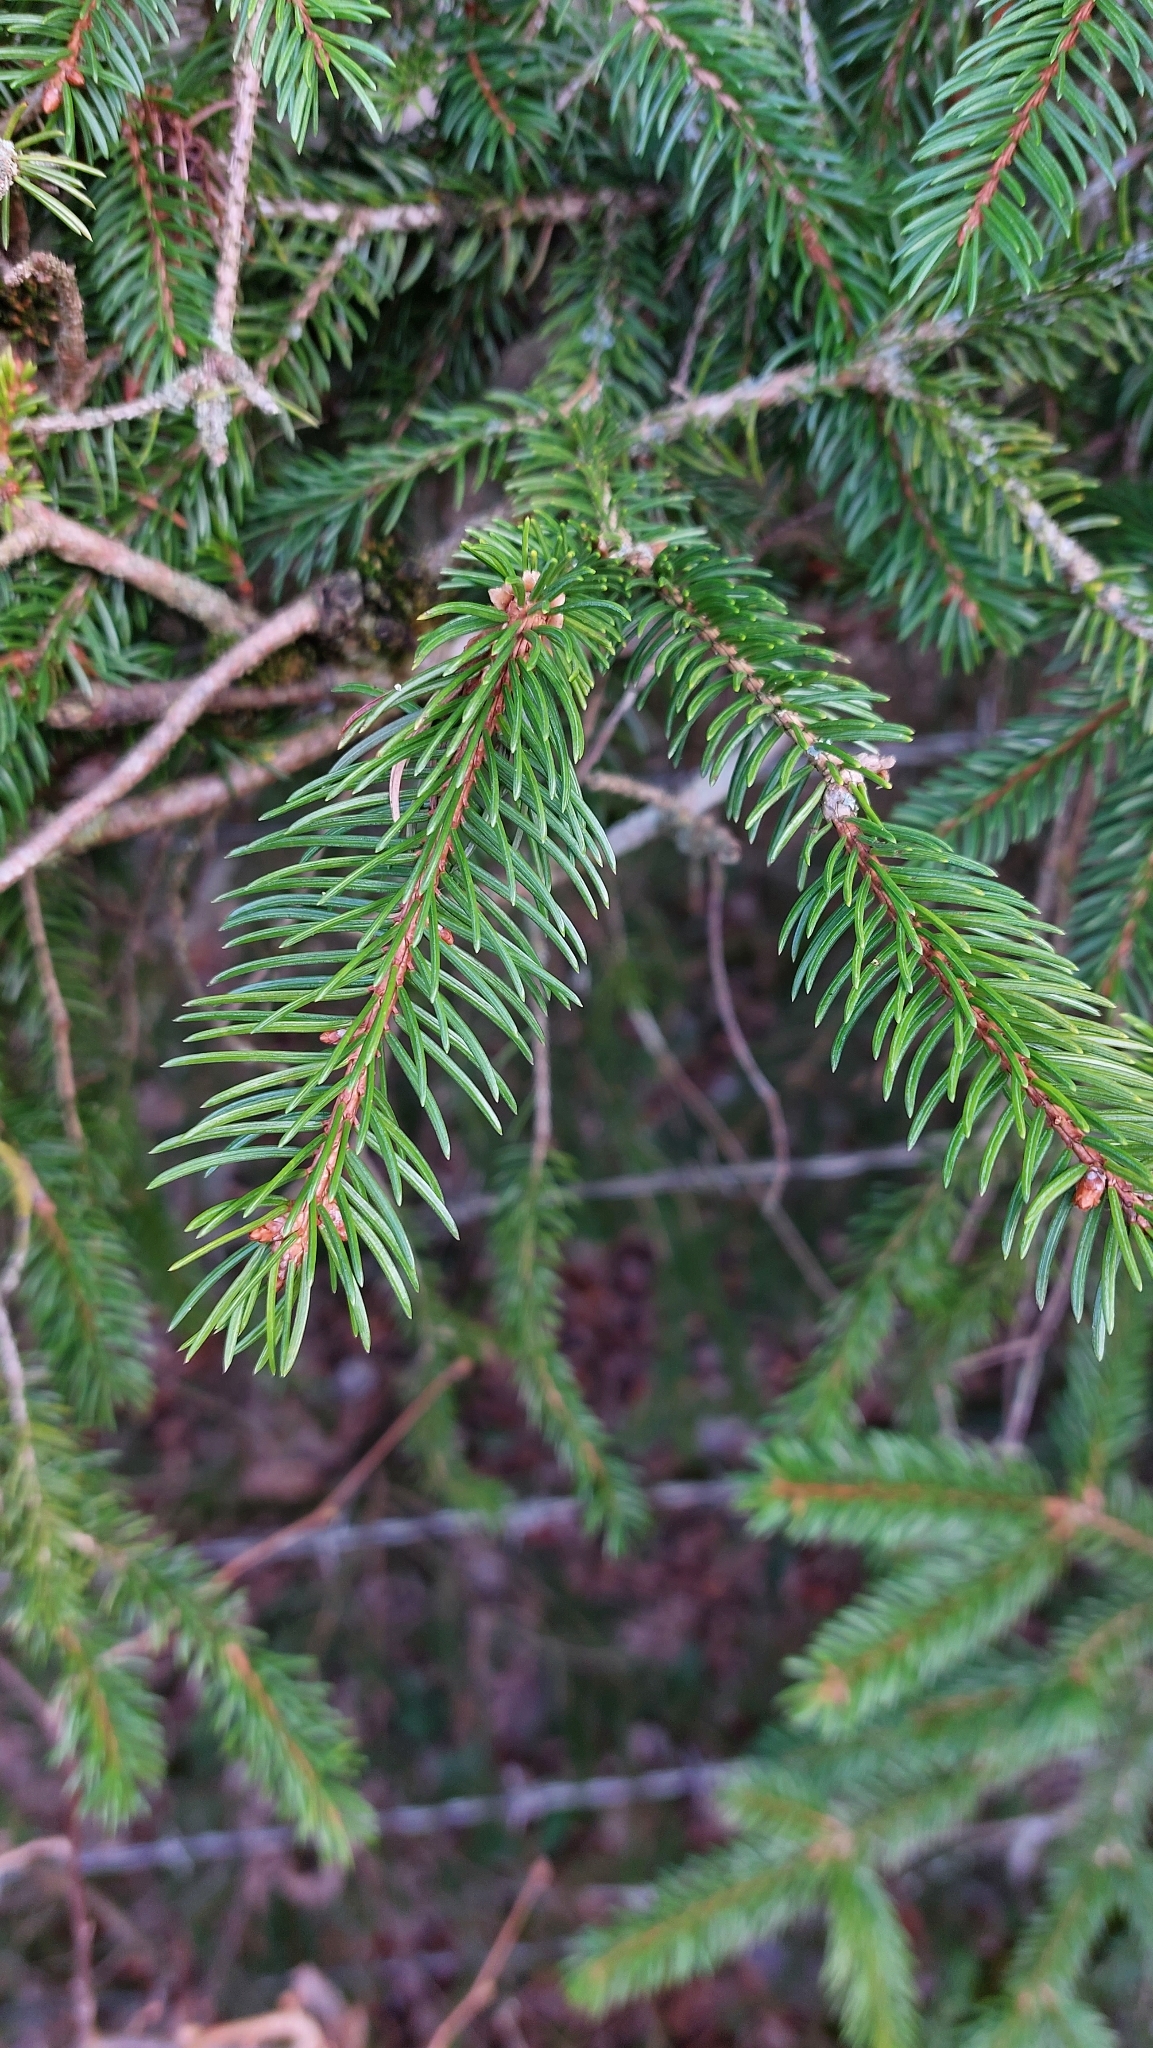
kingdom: Plantae
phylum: Tracheophyta
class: Pinopsida
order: Pinales
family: Pinaceae
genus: Picea
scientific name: Picea abies
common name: Norway spruce
